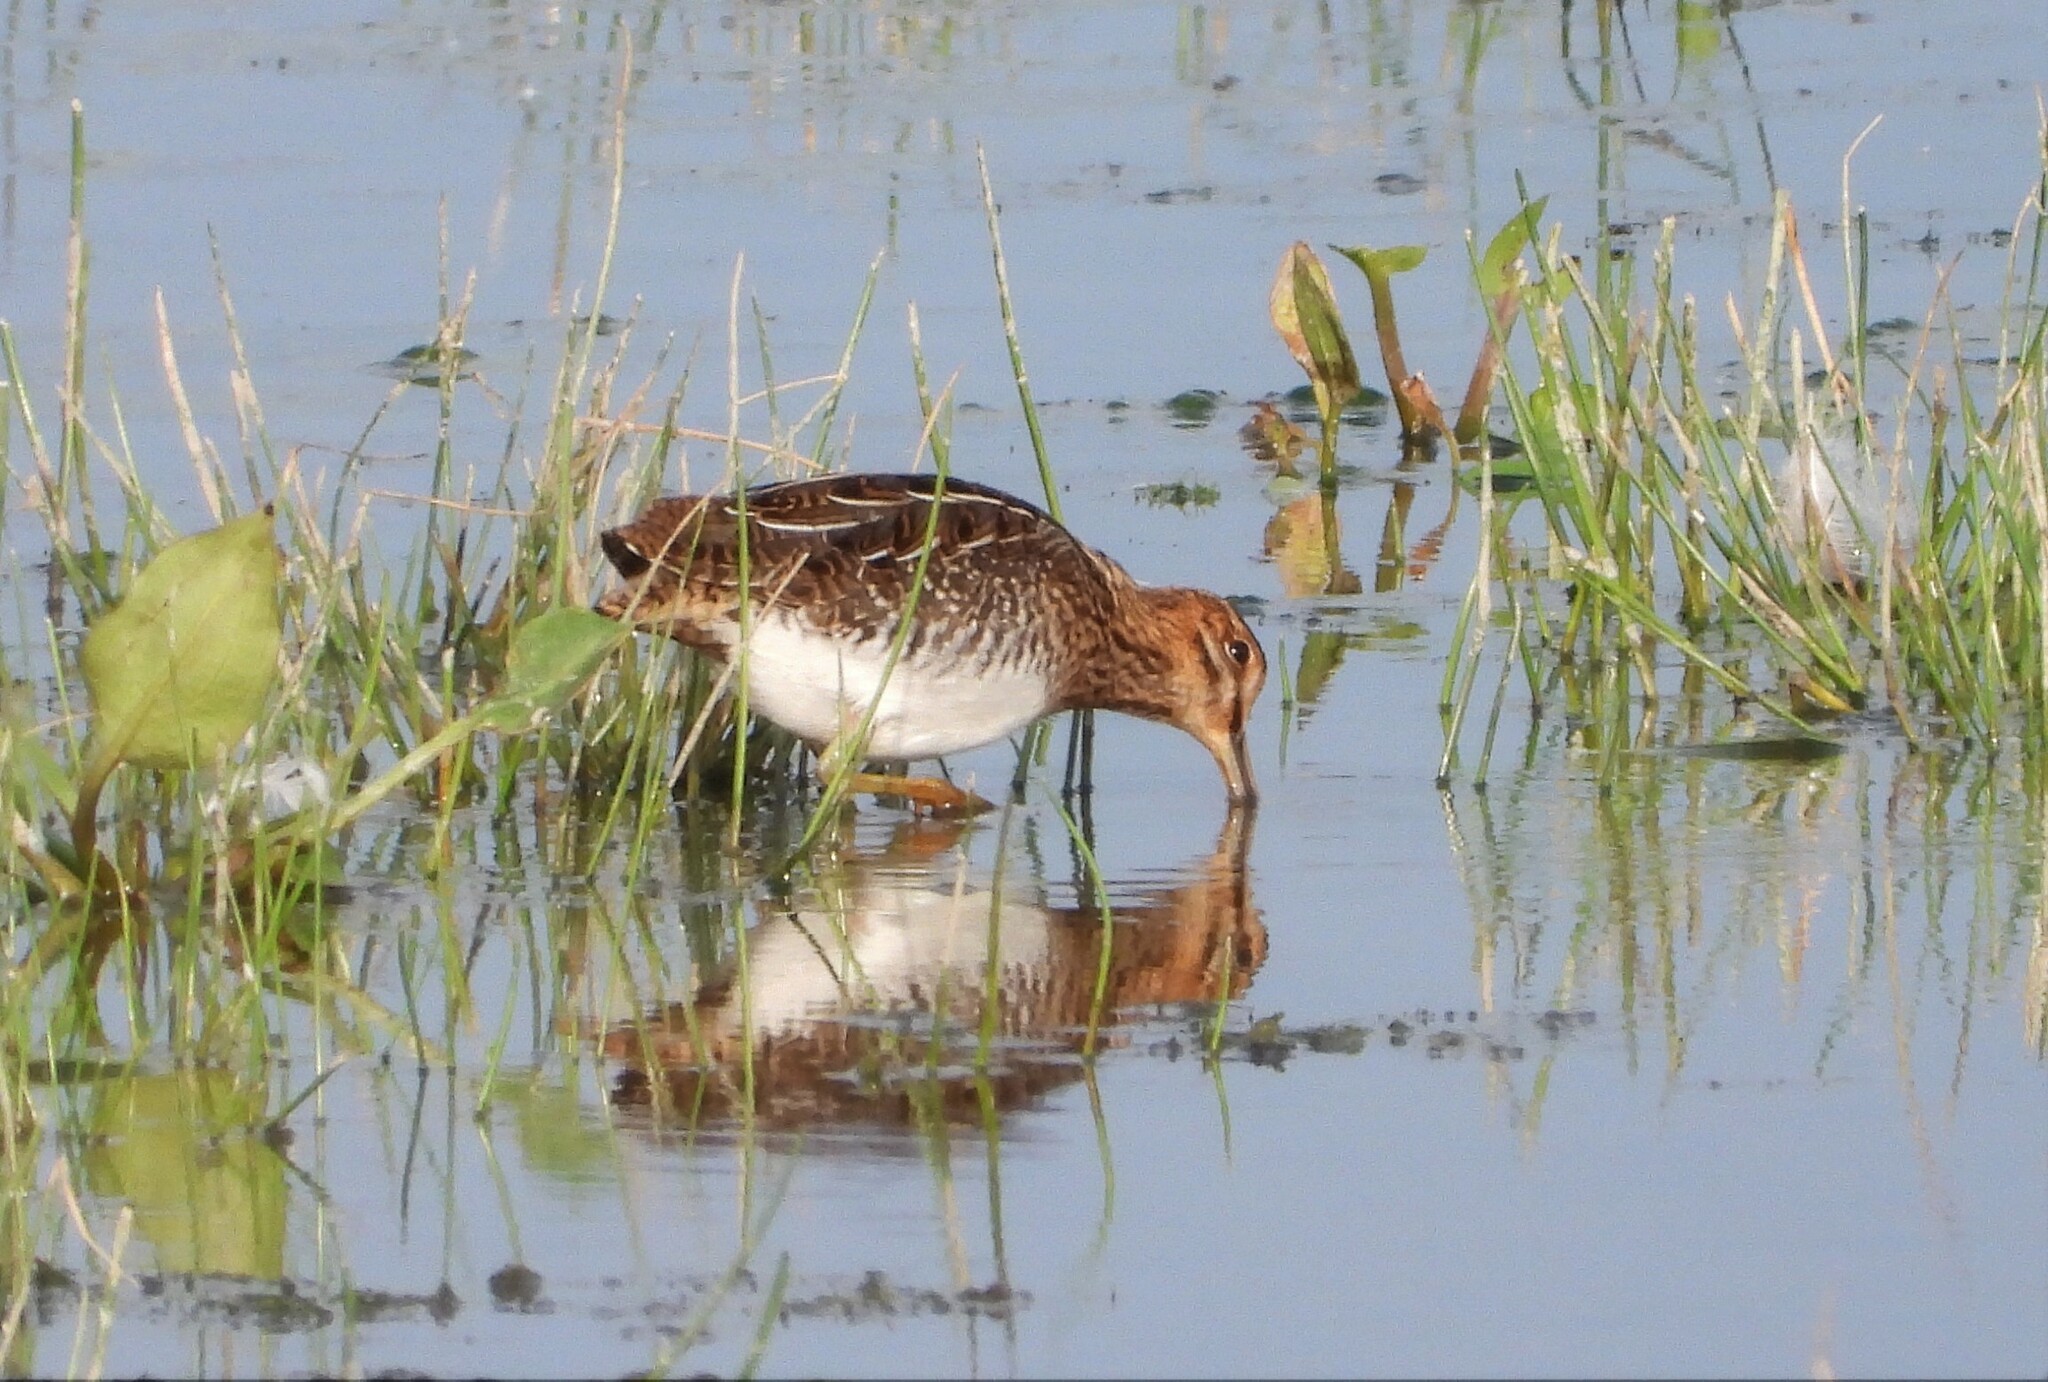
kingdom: Animalia
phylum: Chordata
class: Aves
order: Charadriiformes
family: Scolopacidae
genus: Gallinago
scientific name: Gallinago gallinago
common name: Common snipe
